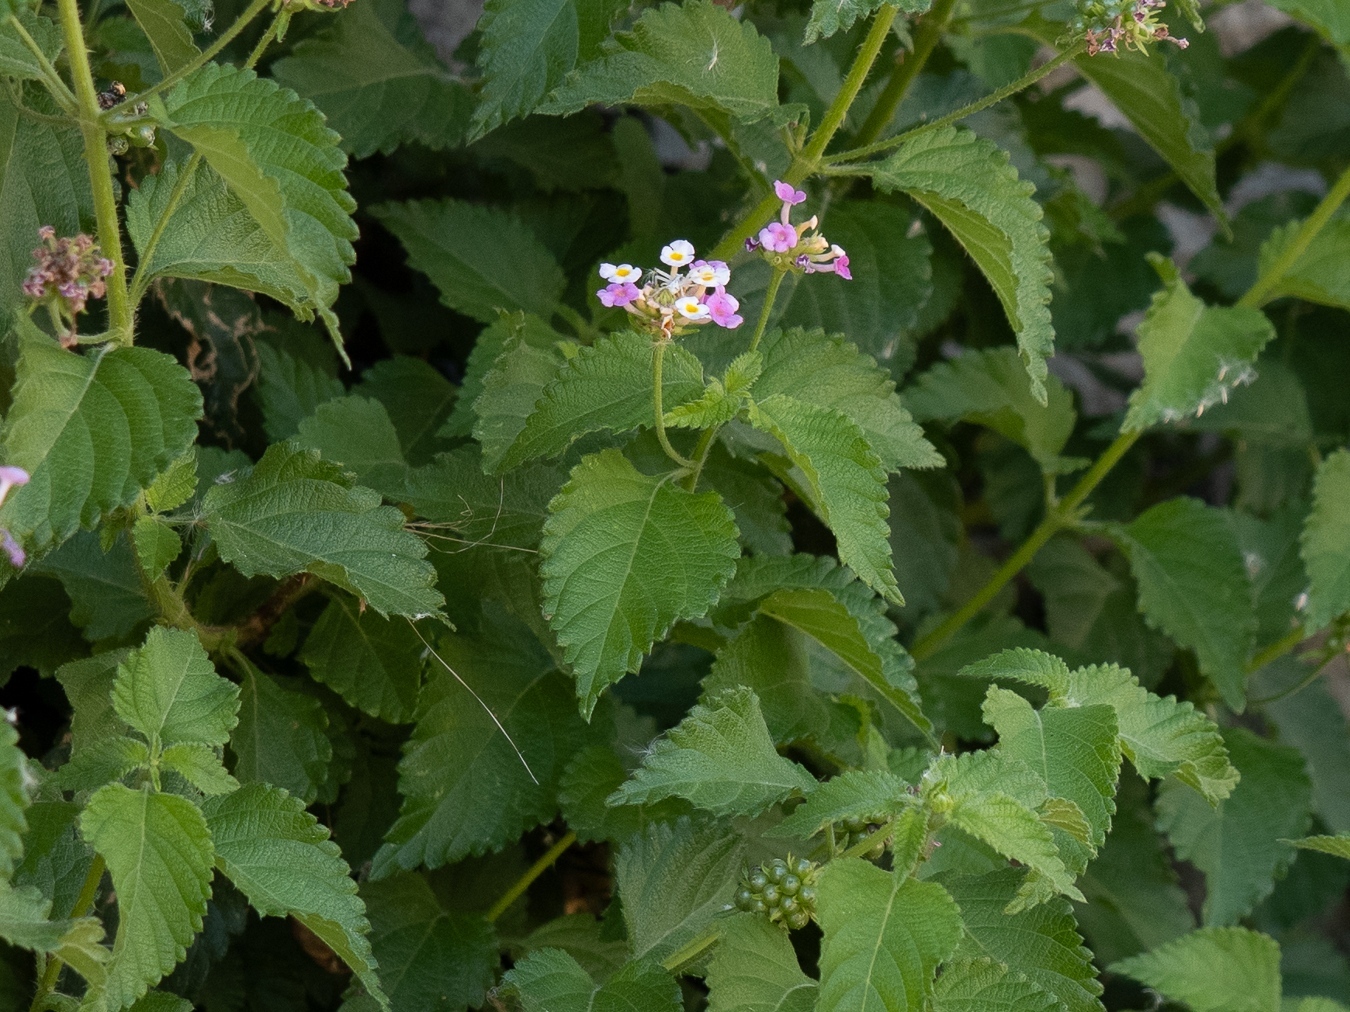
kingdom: Plantae
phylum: Tracheophyta
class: Magnoliopsida
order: Lamiales
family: Verbenaceae
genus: Lantana
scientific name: Lantana camara
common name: Lantana
